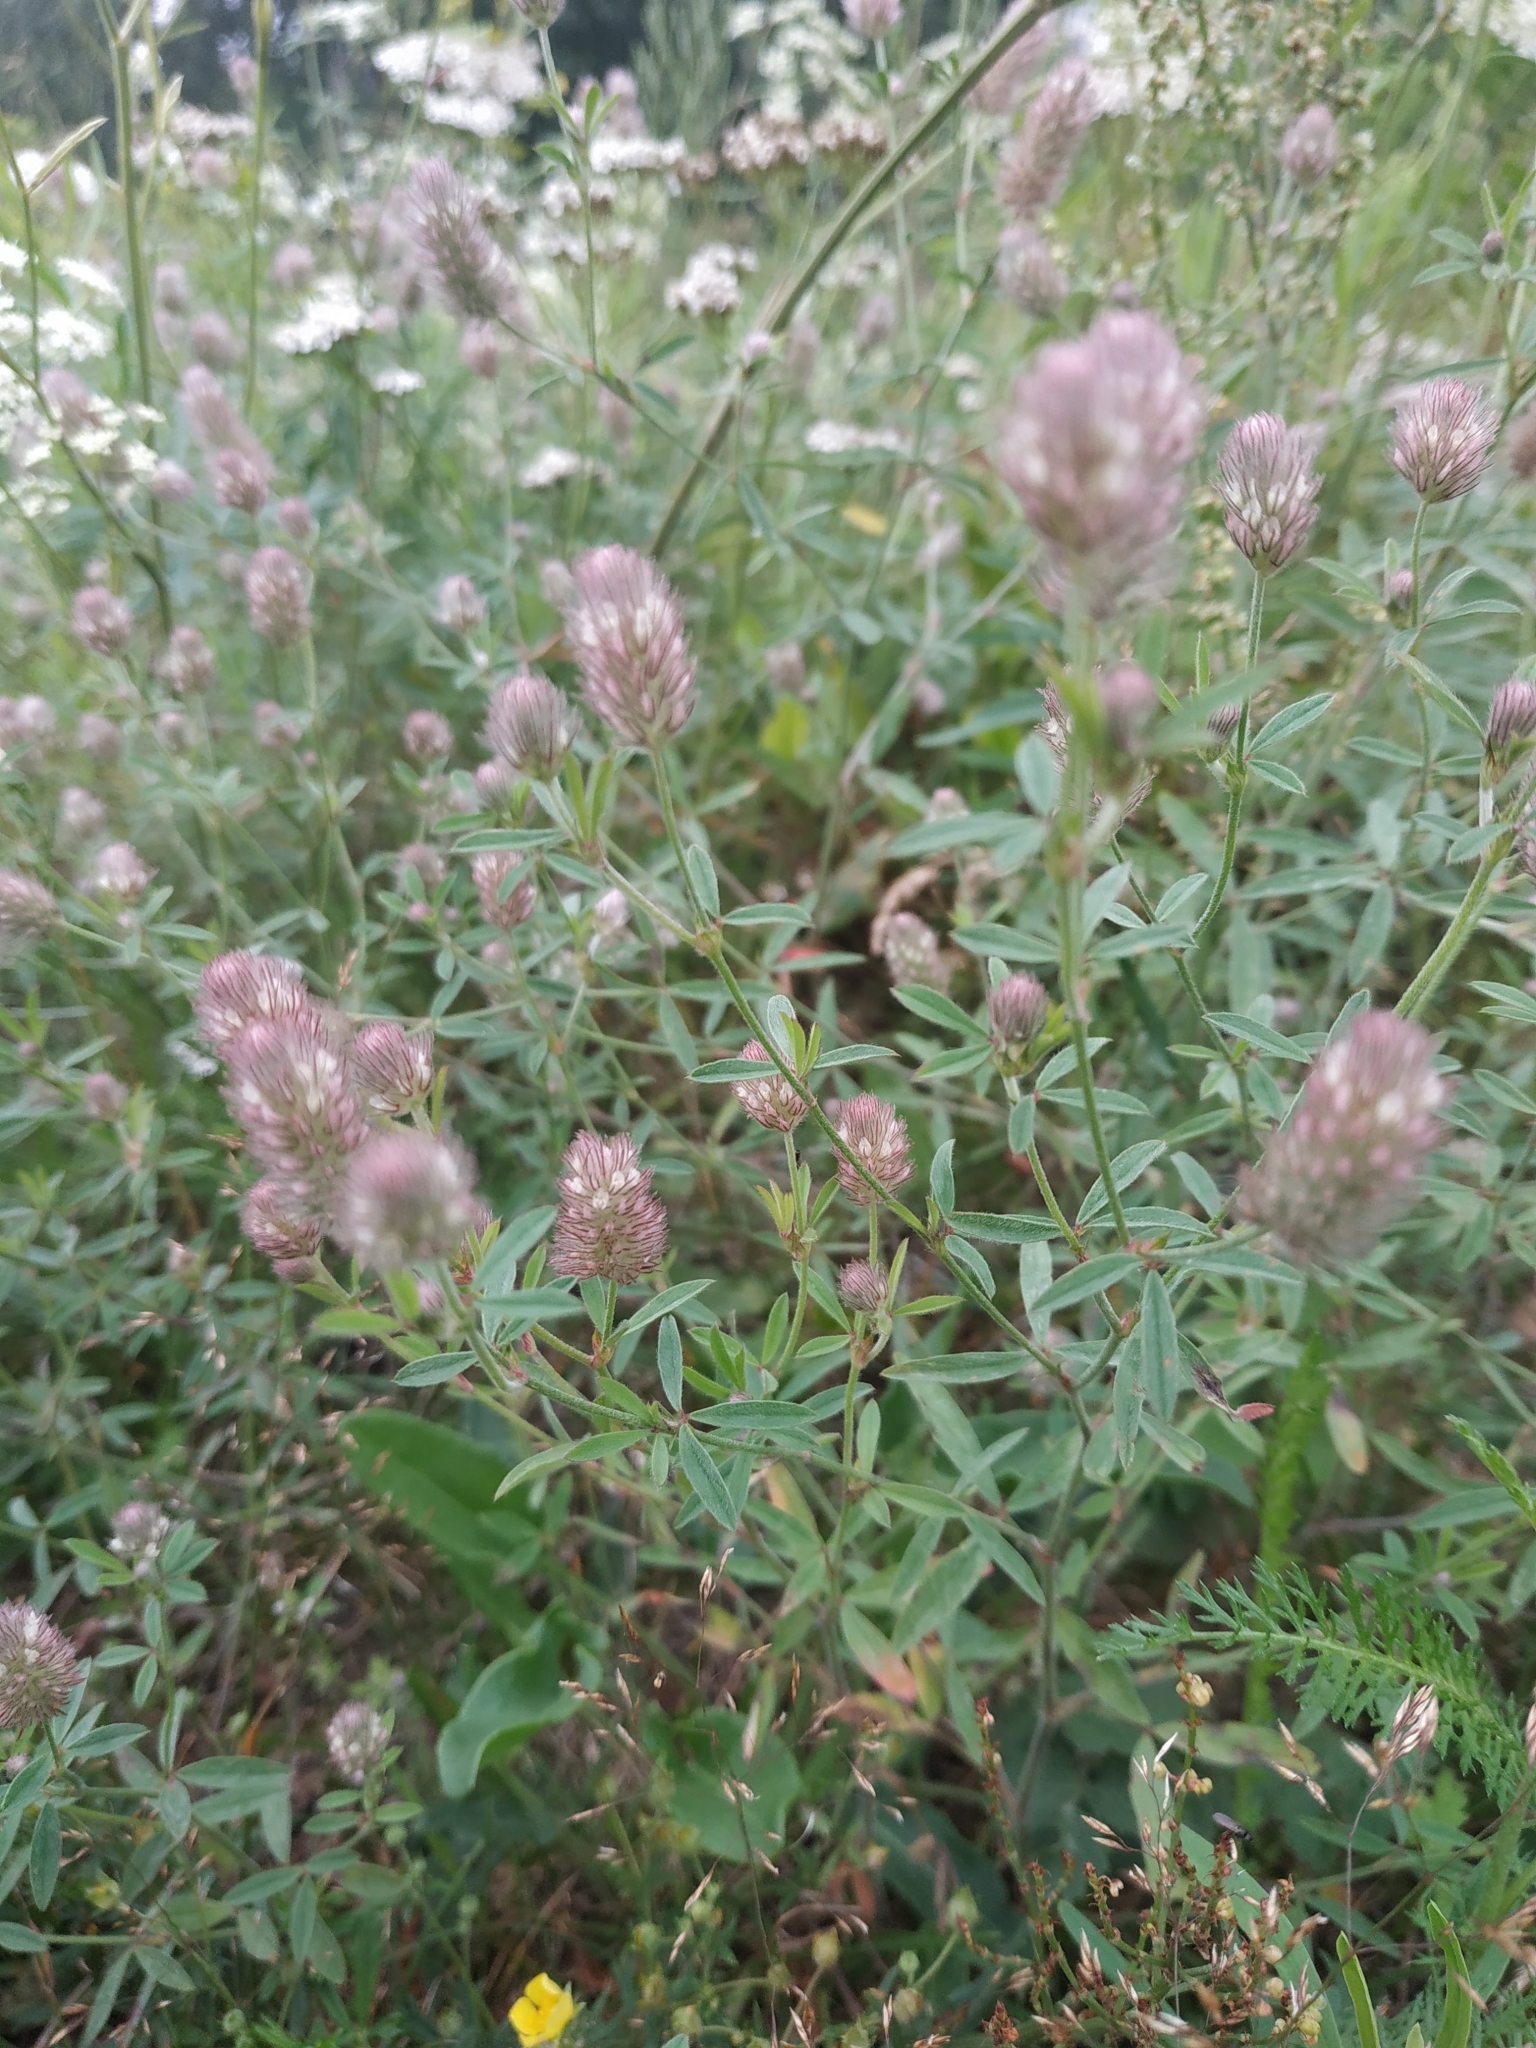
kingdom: Plantae
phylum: Tracheophyta
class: Magnoliopsida
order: Fabales
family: Fabaceae
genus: Trifolium
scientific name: Trifolium arvense
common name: Hare's-foot clover
